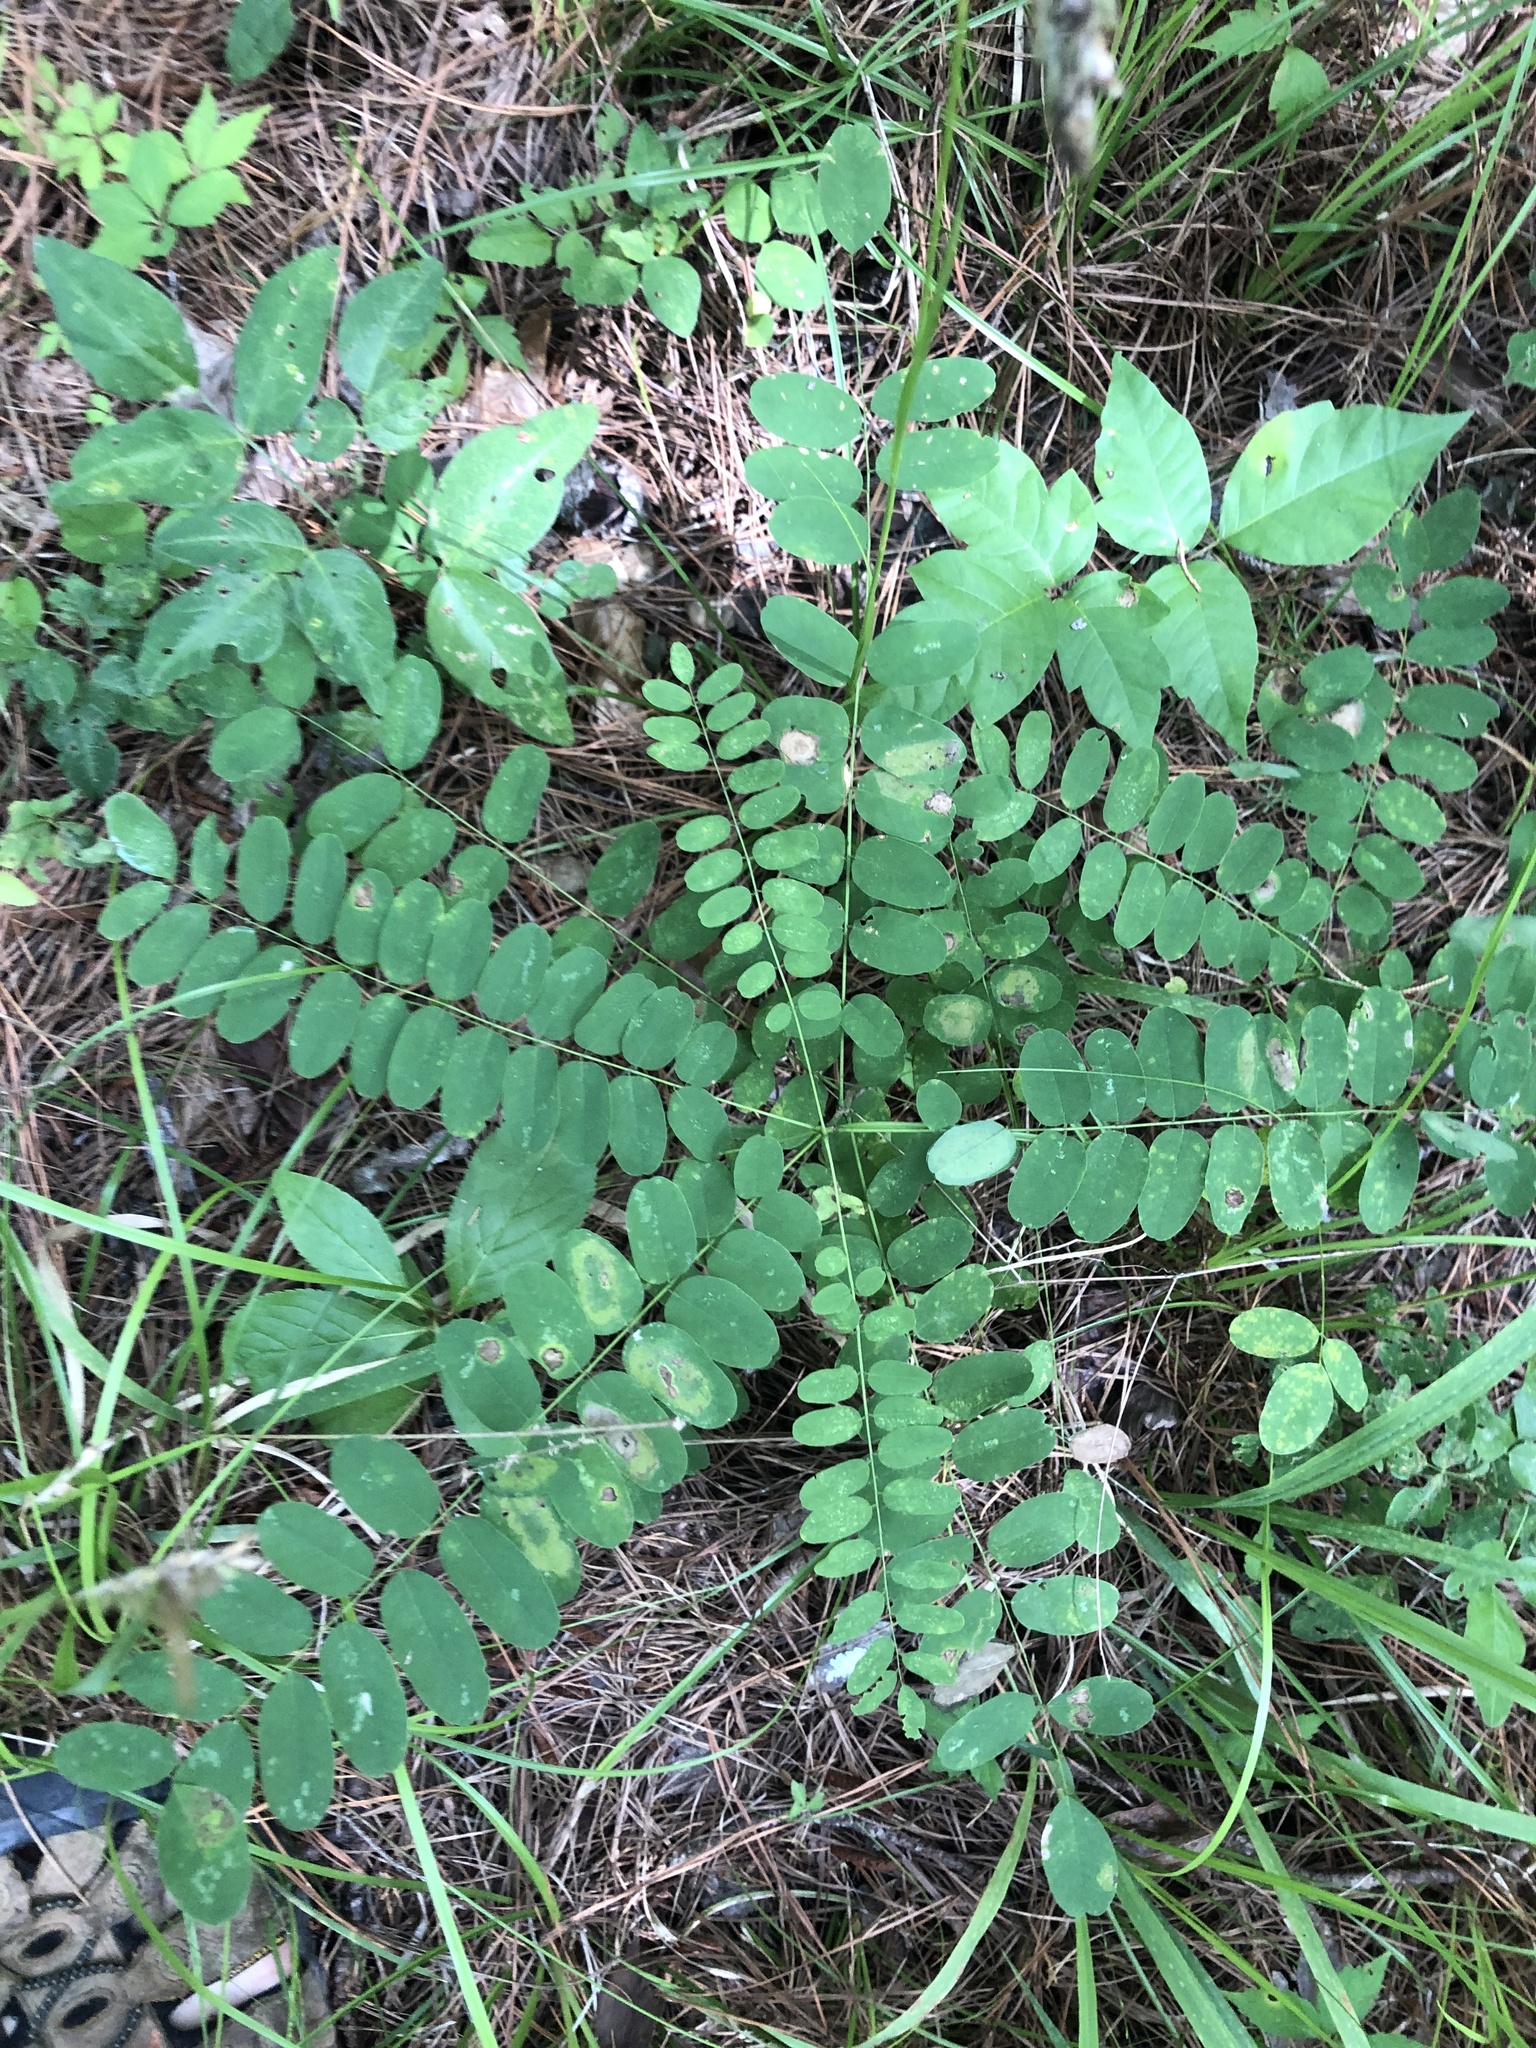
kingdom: Plantae
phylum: Tracheophyta
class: Magnoliopsida
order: Fabales
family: Fabaceae
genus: Amorpha
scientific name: Amorpha fruticosa
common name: False indigo
